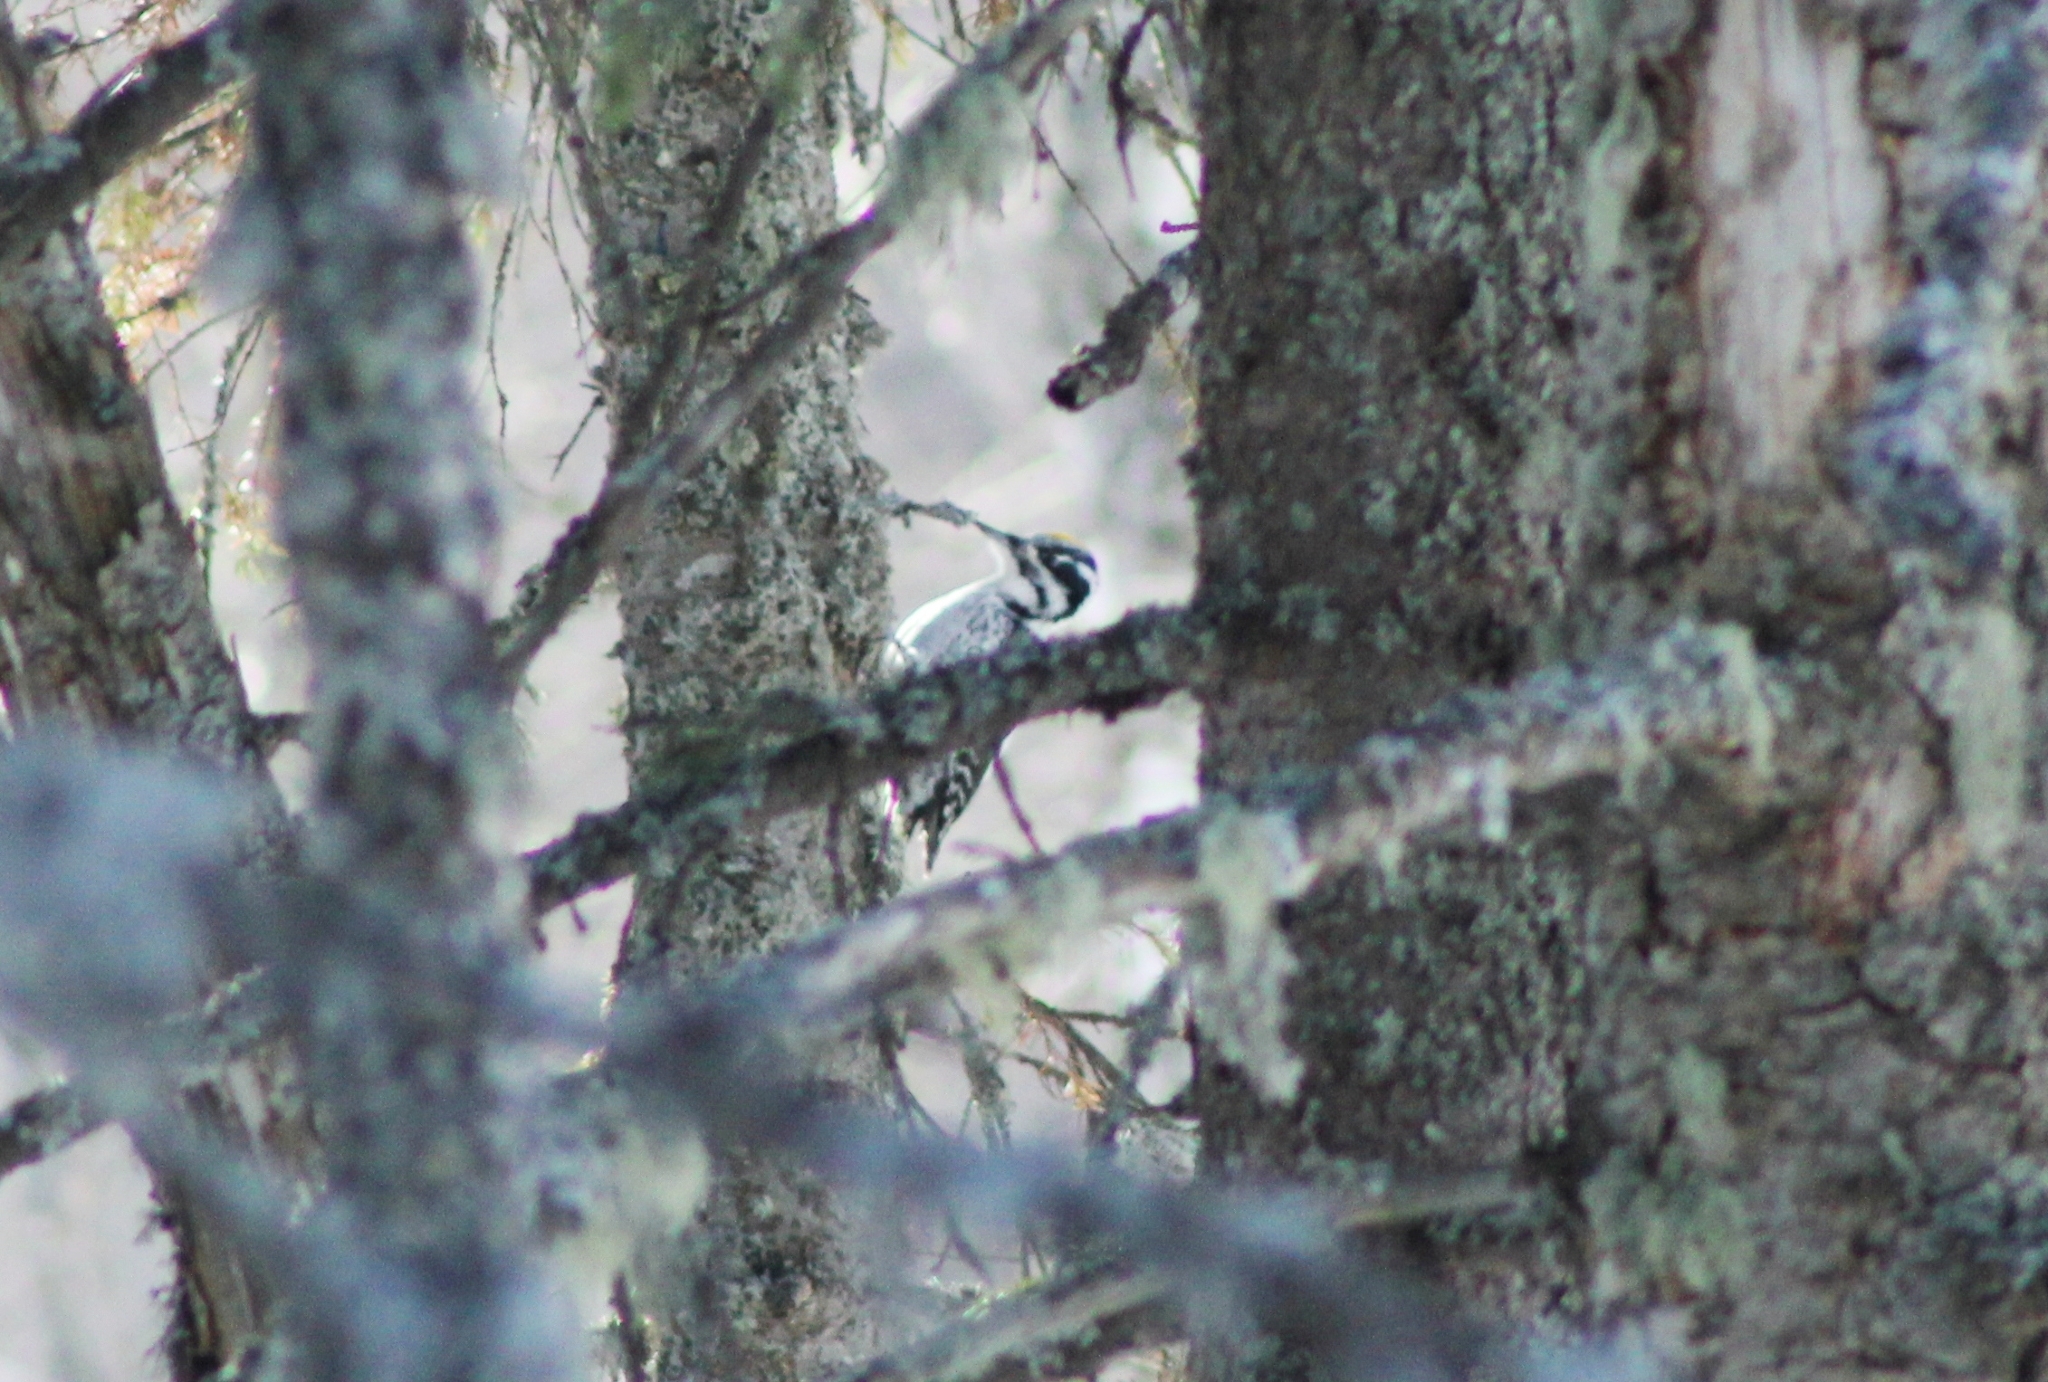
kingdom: Animalia
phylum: Chordata
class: Aves
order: Piciformes
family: Picidae
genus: Picoides
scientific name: Picoides tridactylus
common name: Eurasian three-toed woodpecker
